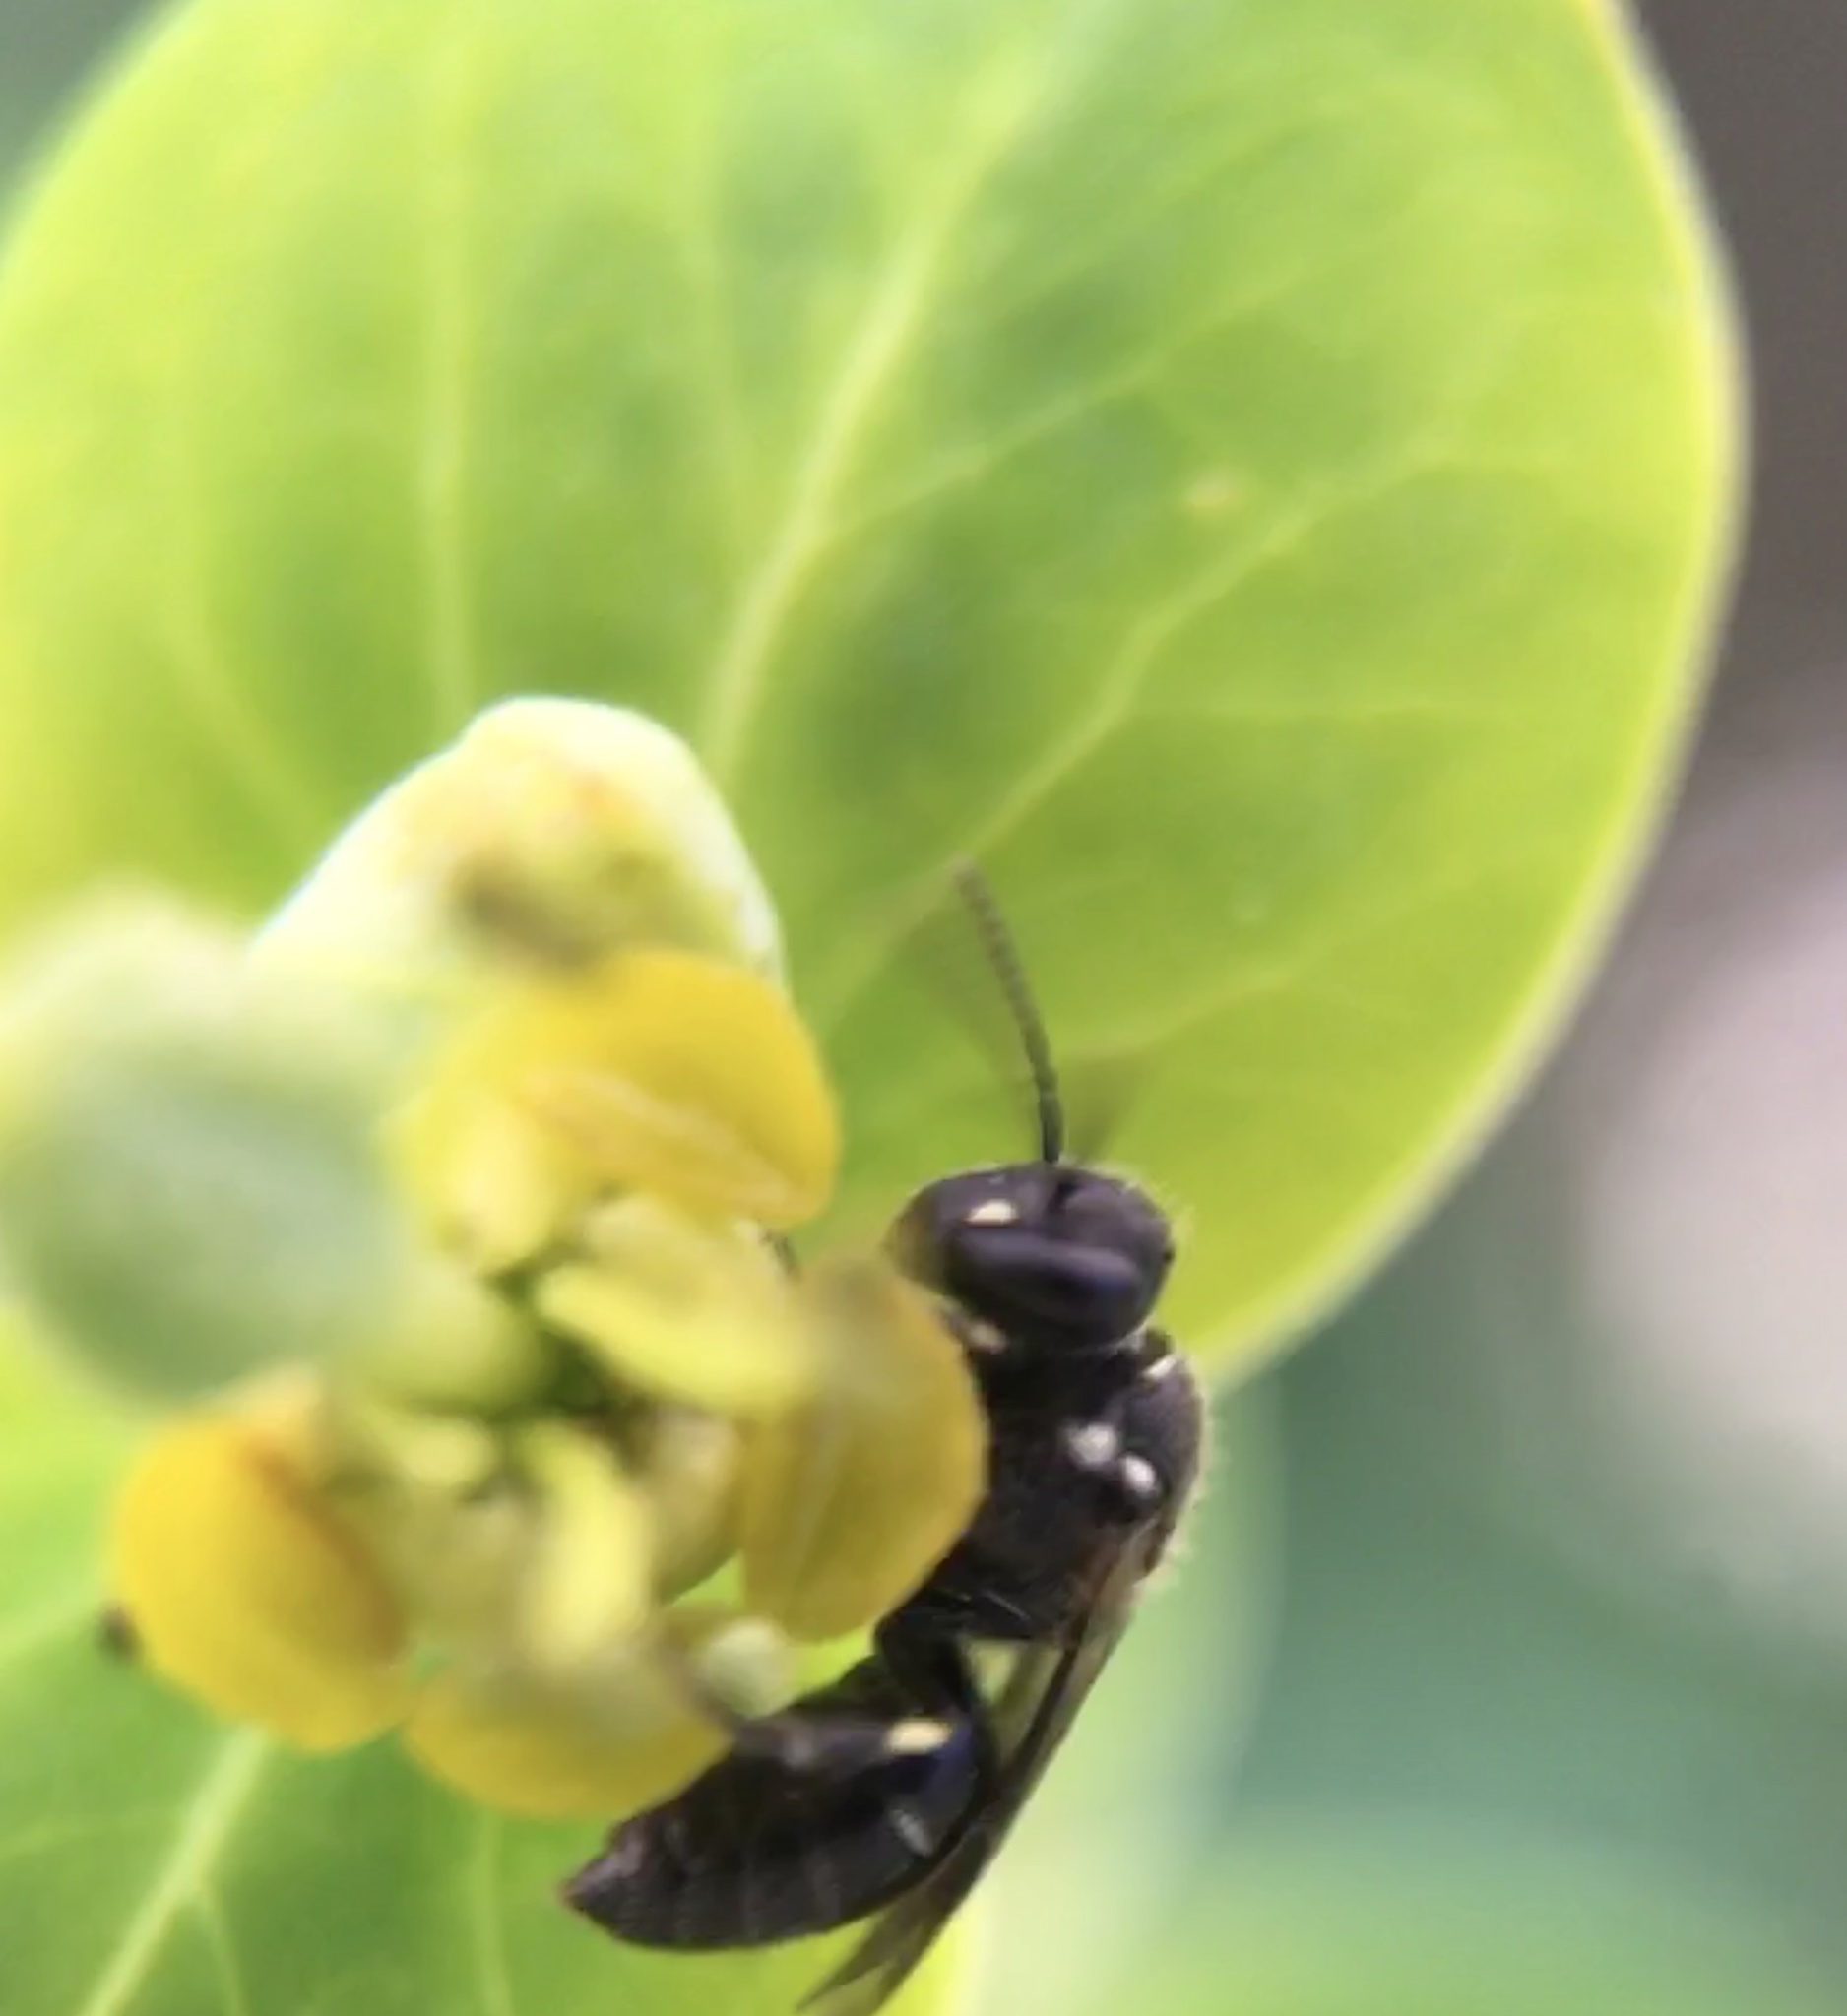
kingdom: Animalia
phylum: Arthropoda
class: Insecta
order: Hymenoptera
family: Colletidae
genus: Hylaeus
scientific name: Hylaeus
